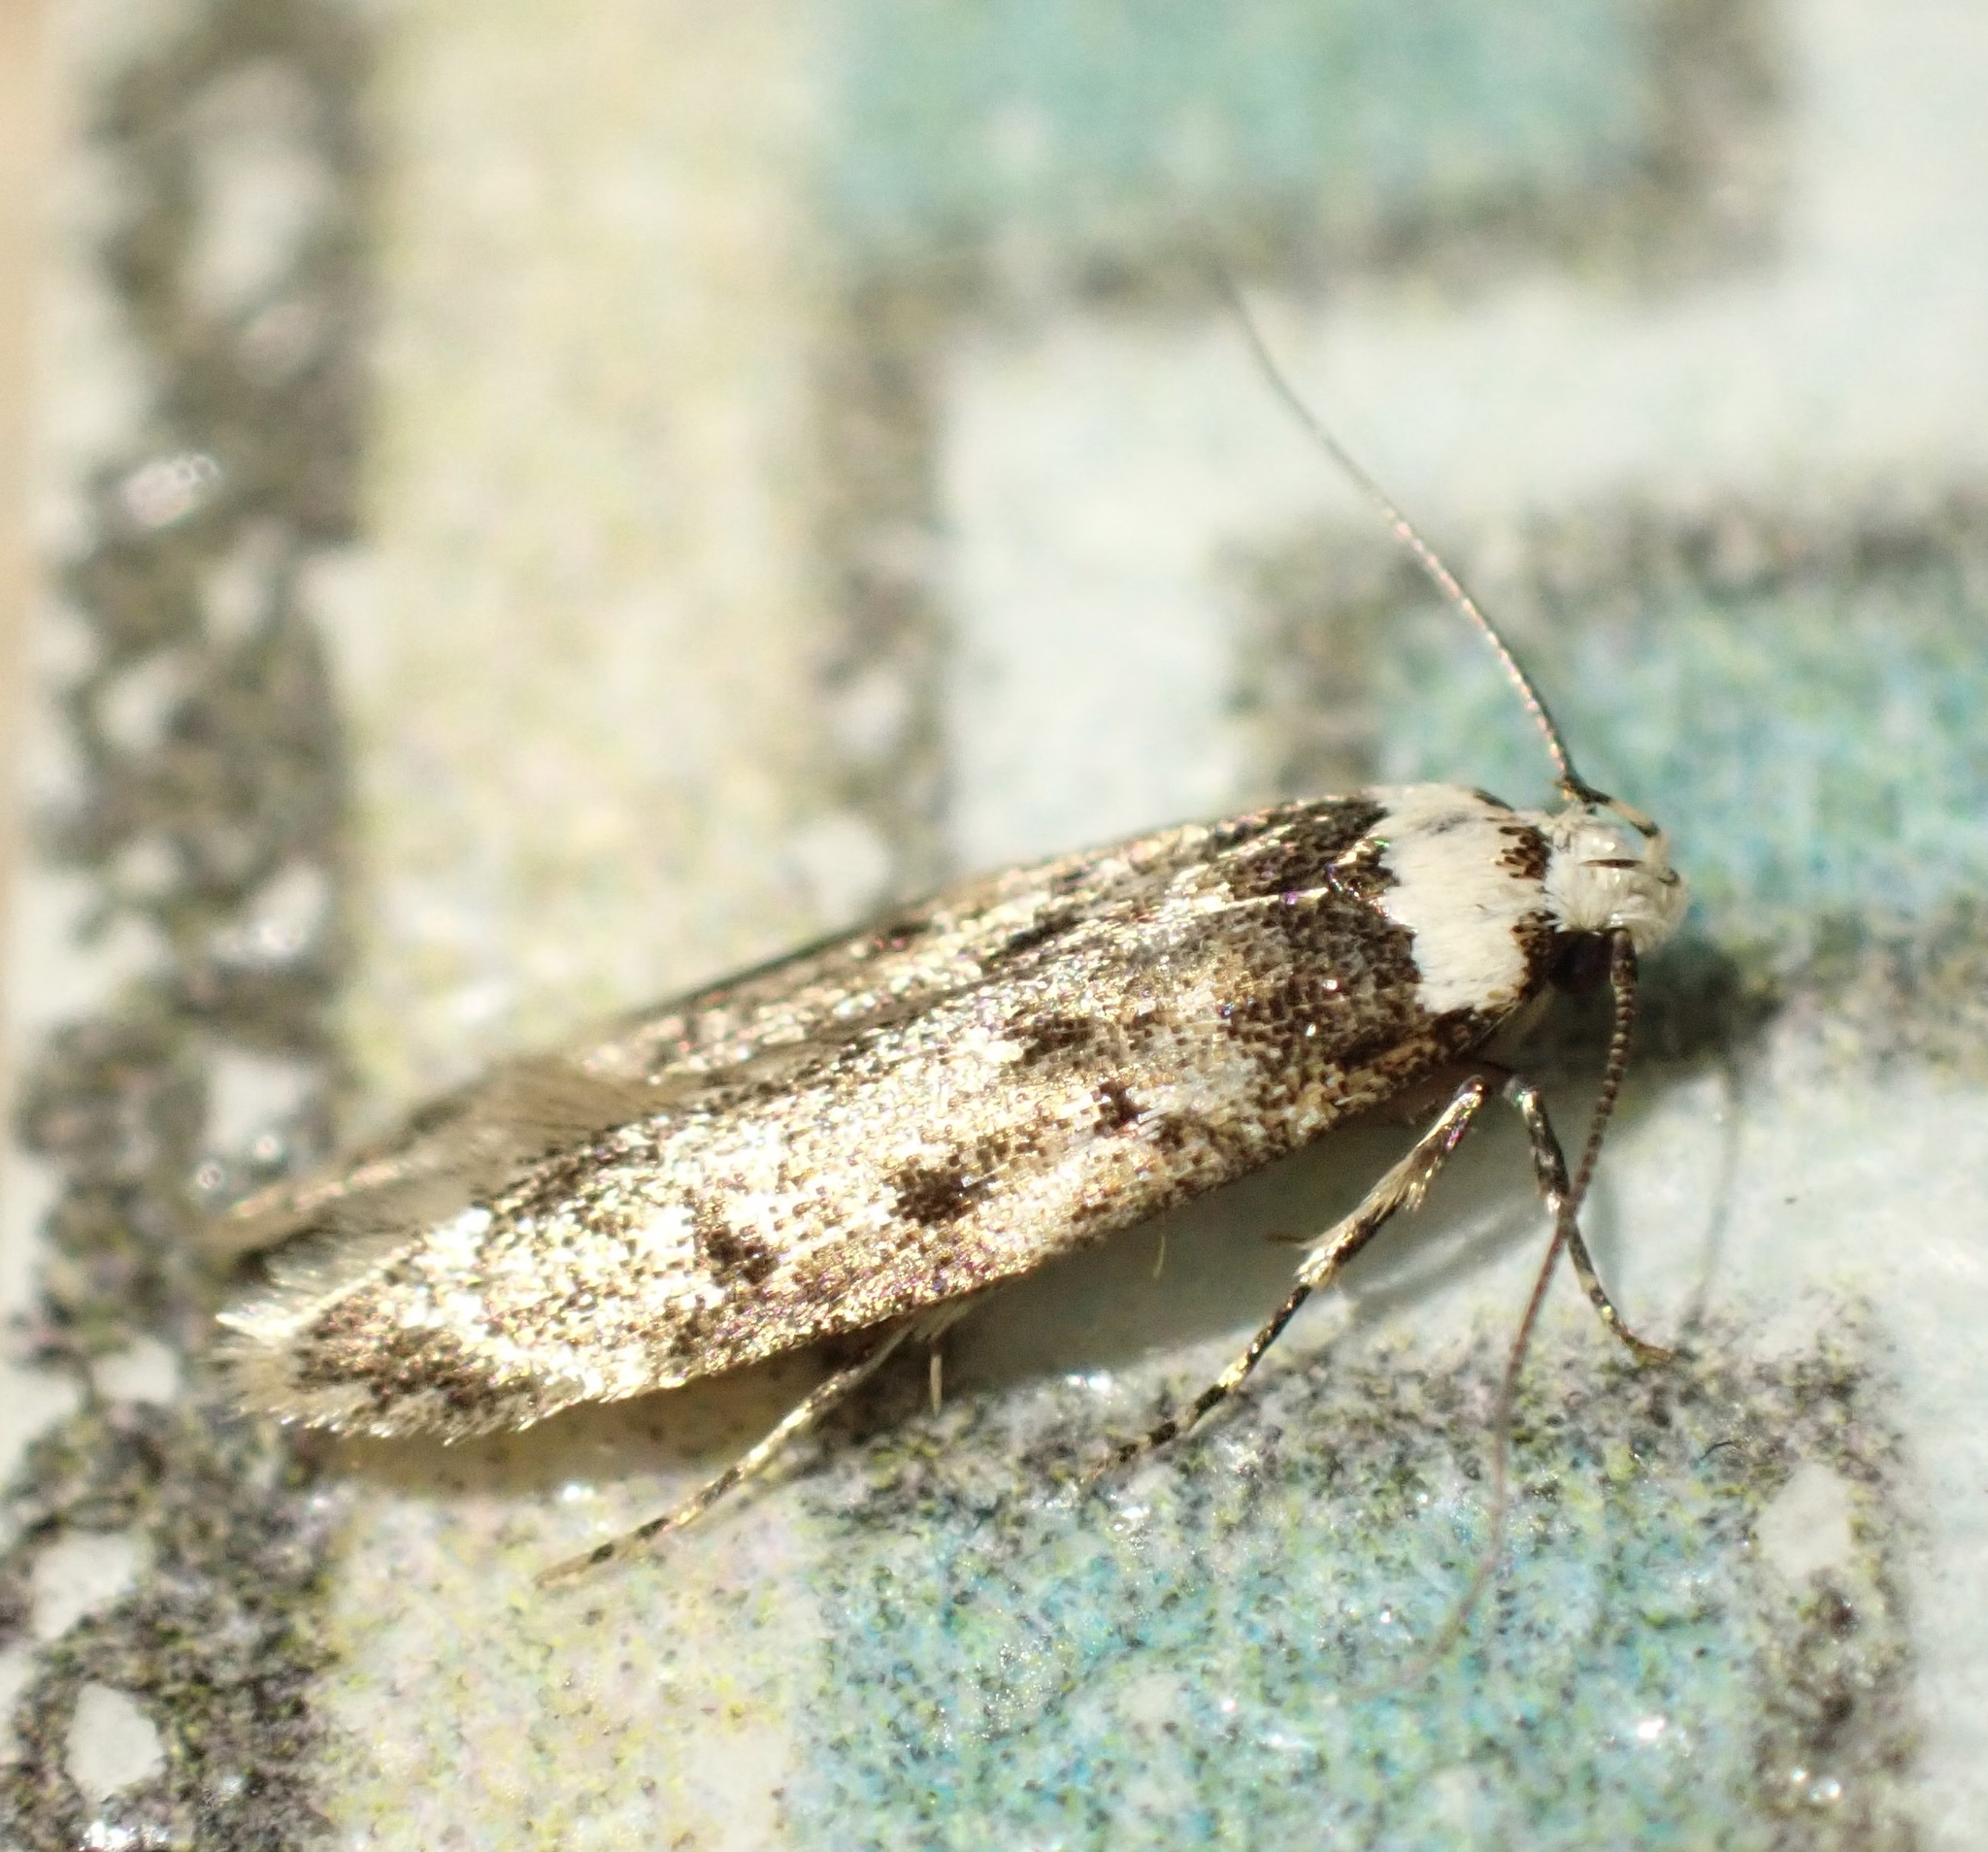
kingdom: Animalia
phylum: Arthropoda
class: Insecta
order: Lepidoptera
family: Oecophoridae
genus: Endrosis
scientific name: Endrosis sarcitrella
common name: White-shouldered house moth
